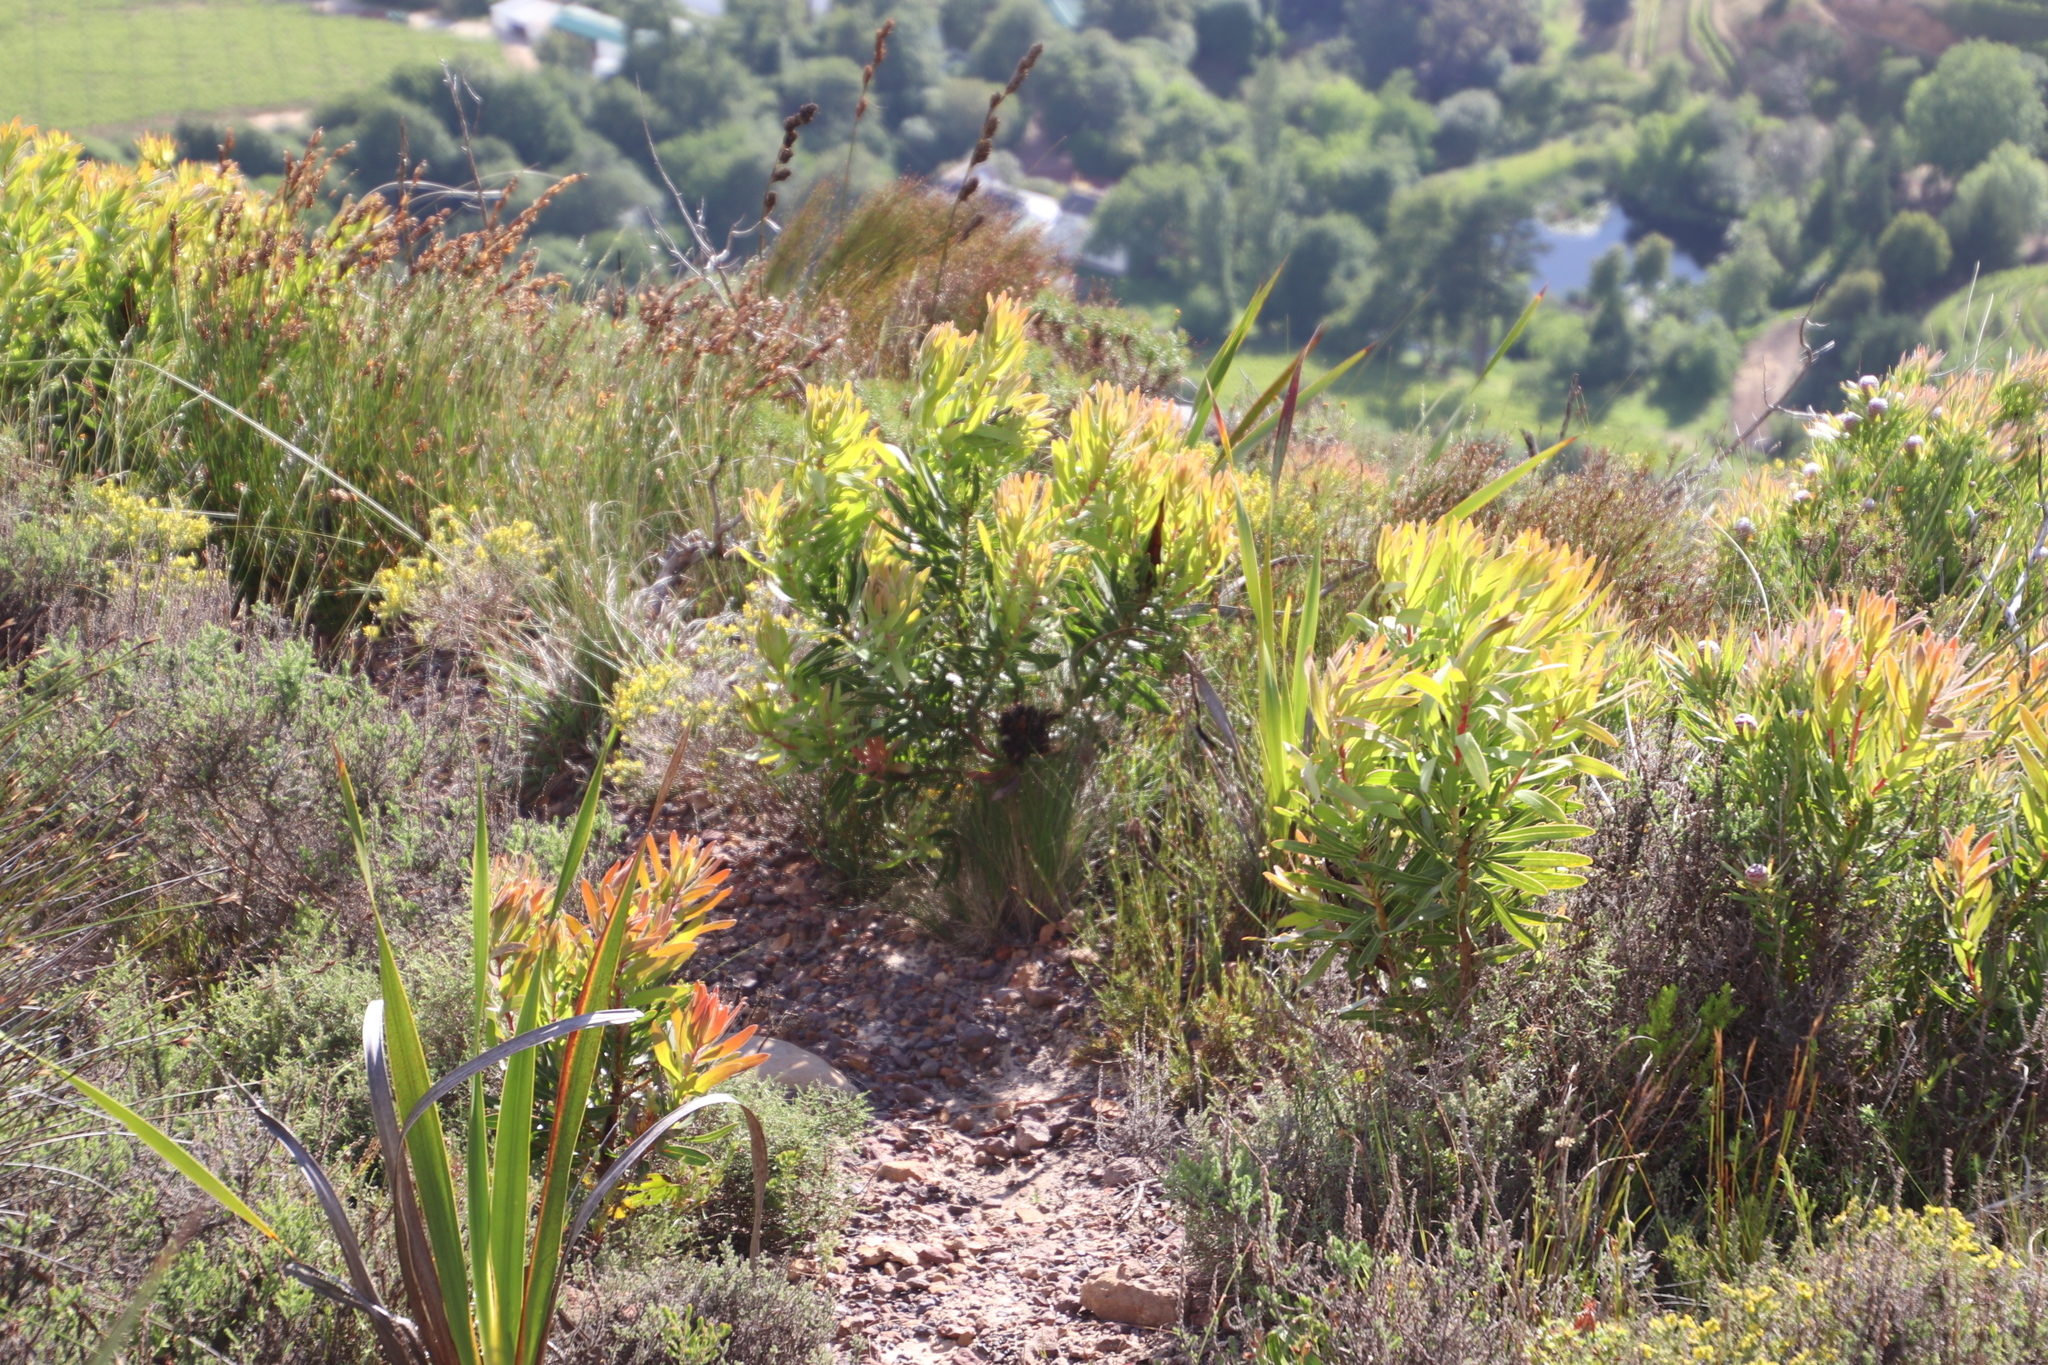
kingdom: Plantae
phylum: Tracheophyta
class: Magnoliopsida
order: Proteales
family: Proteaceae
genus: Protea
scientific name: Protea lepidocarpodendron
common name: Black-bearded protea
